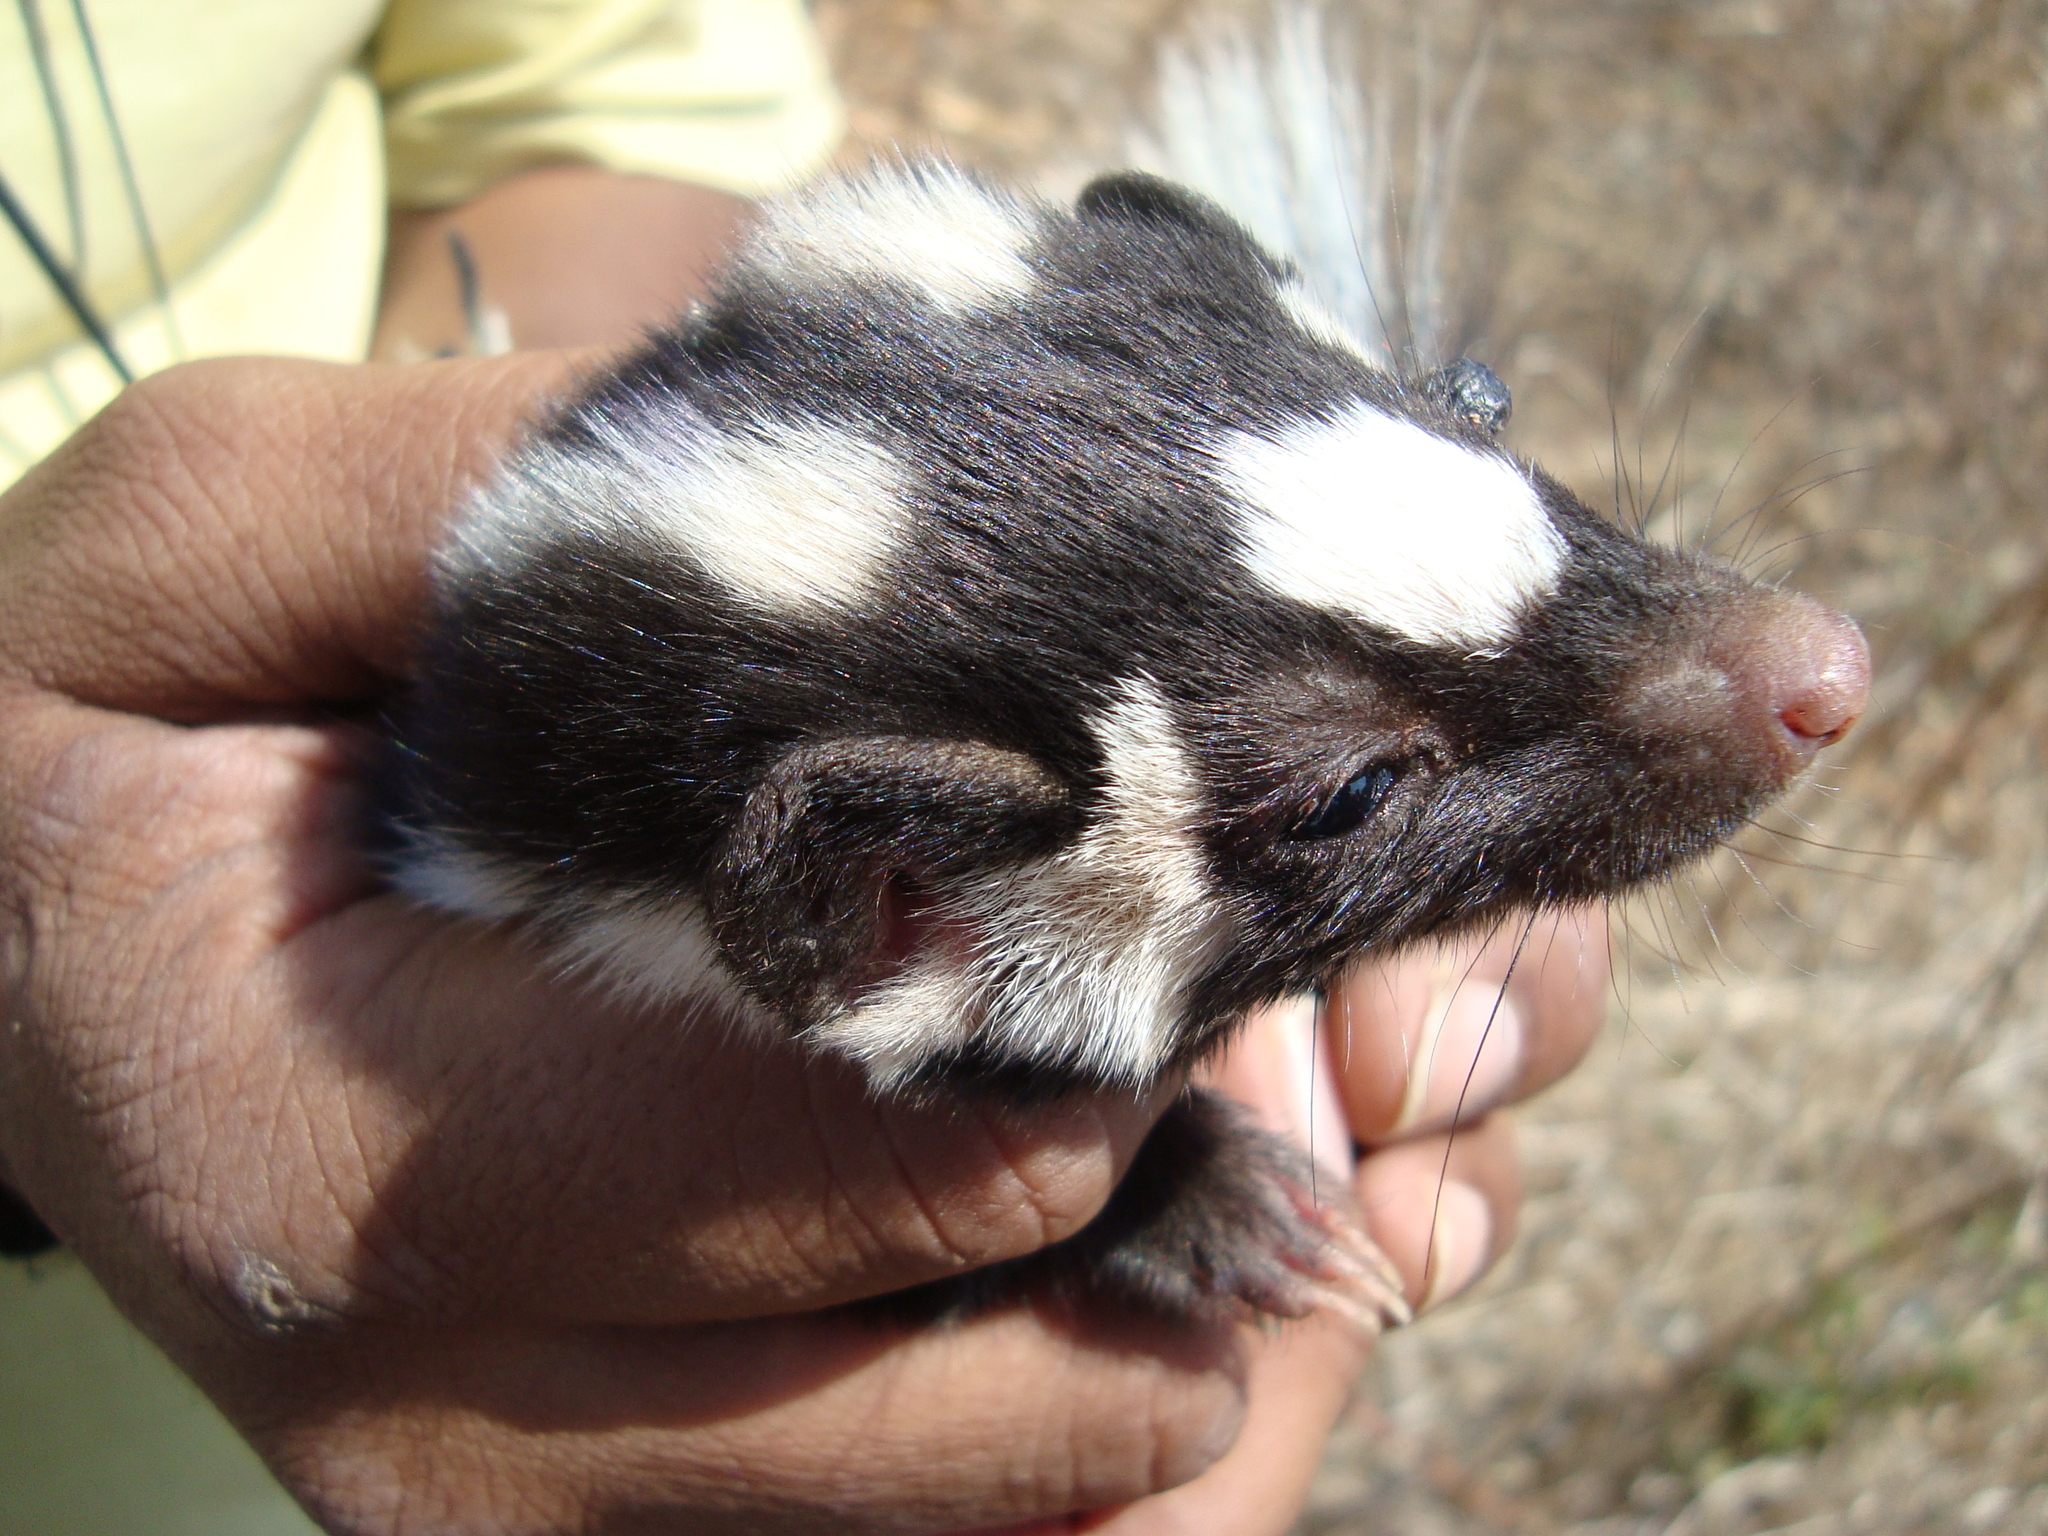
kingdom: Animalia
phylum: Chordata
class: Mammalia
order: Carnivora
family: Mephitidae
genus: Spilogale
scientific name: Spilogale angustifrons
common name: Southern spotted skunk
